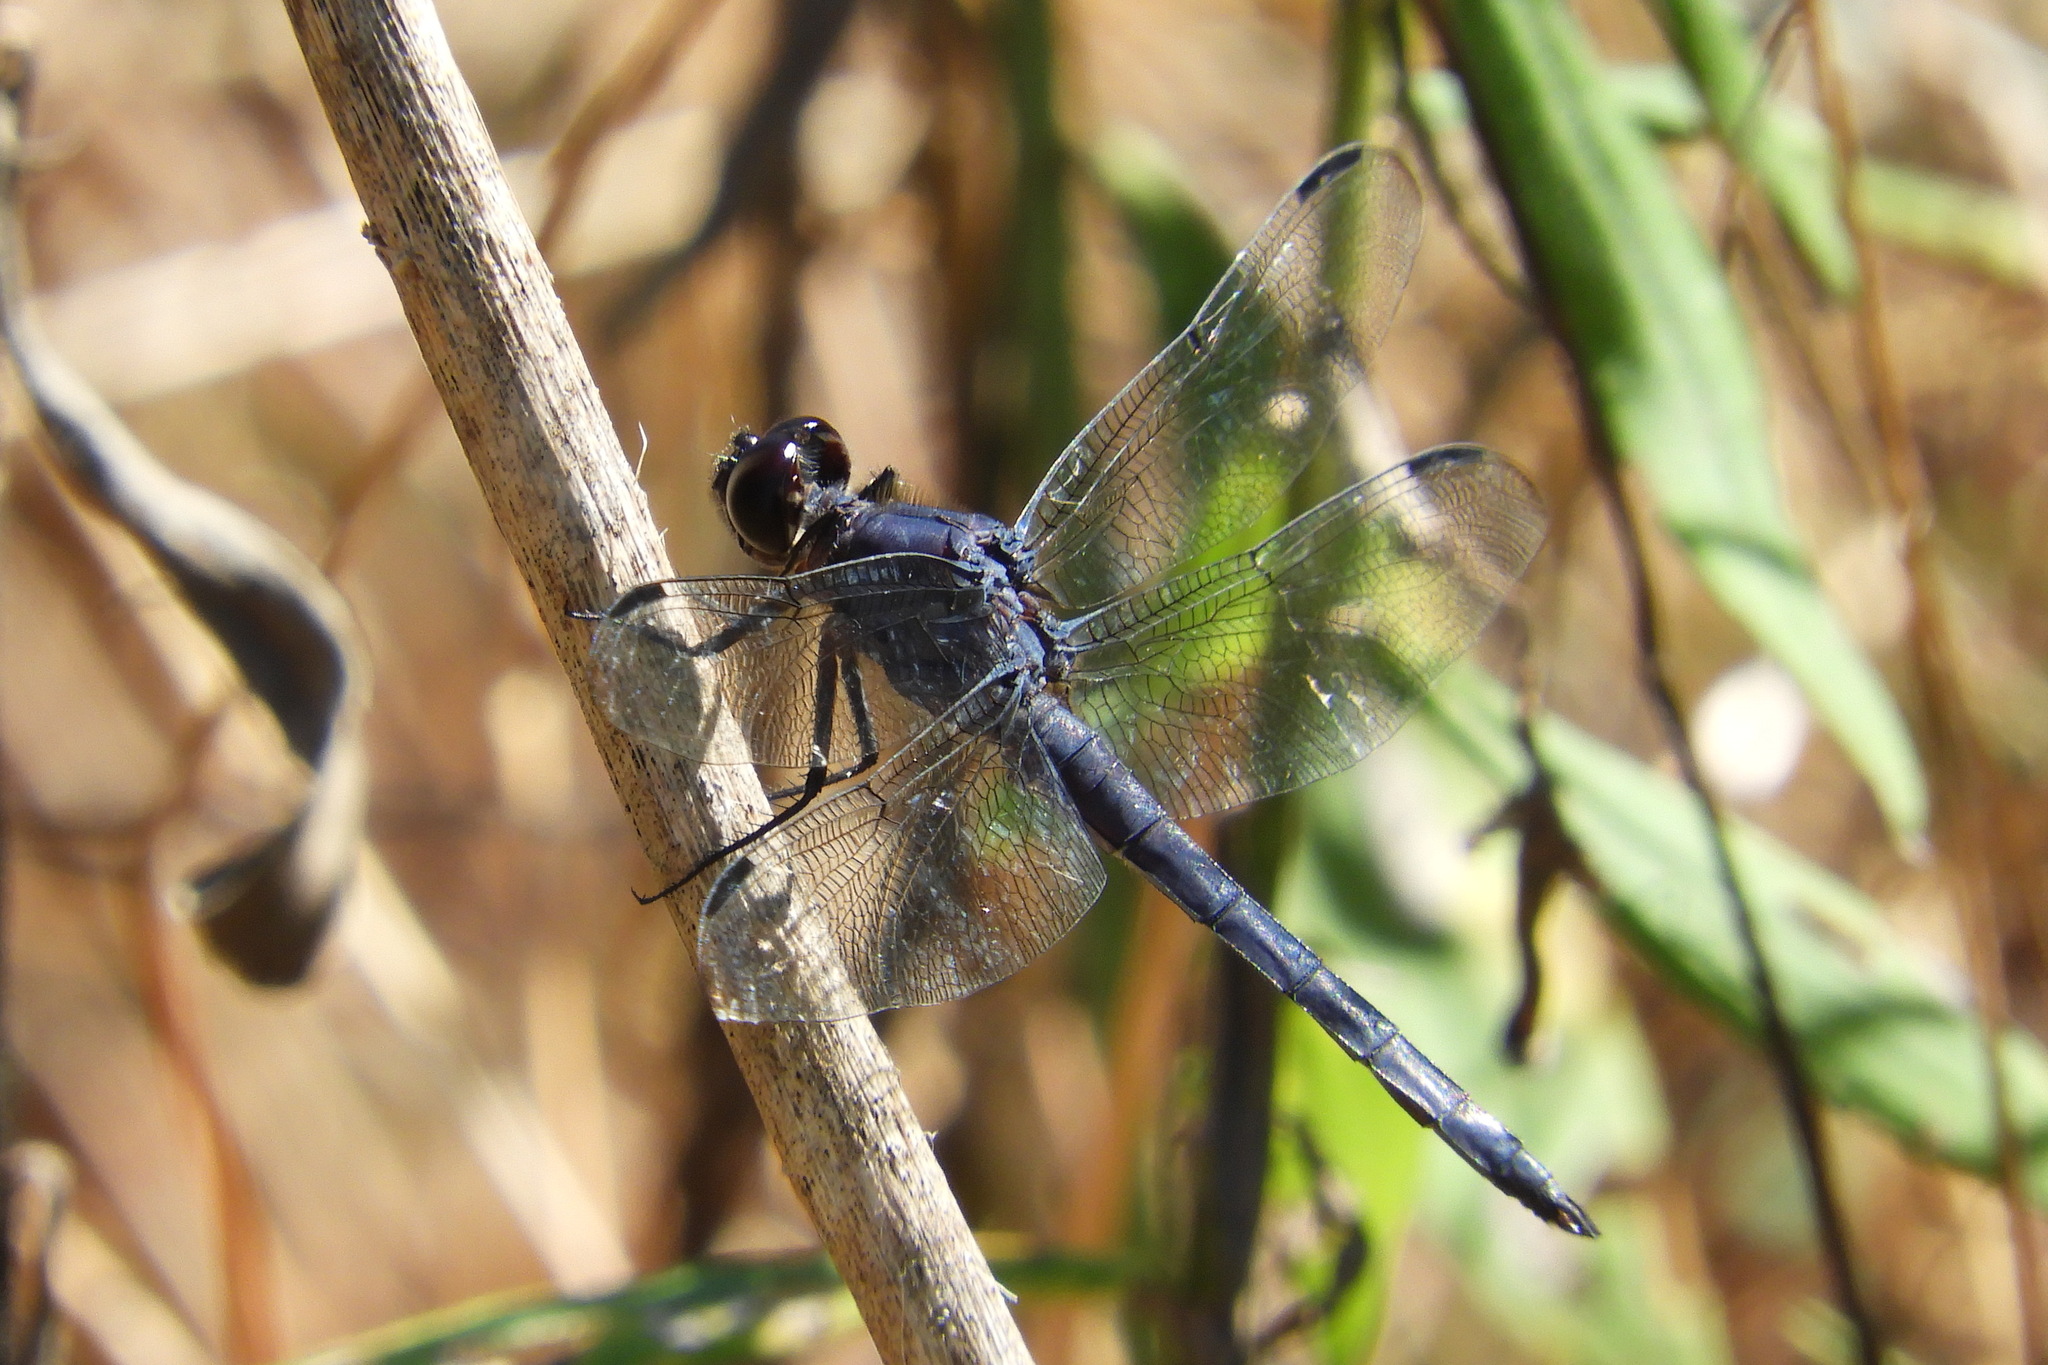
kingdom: Animalia
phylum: Arthropoda
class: Insecta
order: Odonata
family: Libellulidae
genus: Libellula
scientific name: Libellula incesta
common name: Slaty skimmer
